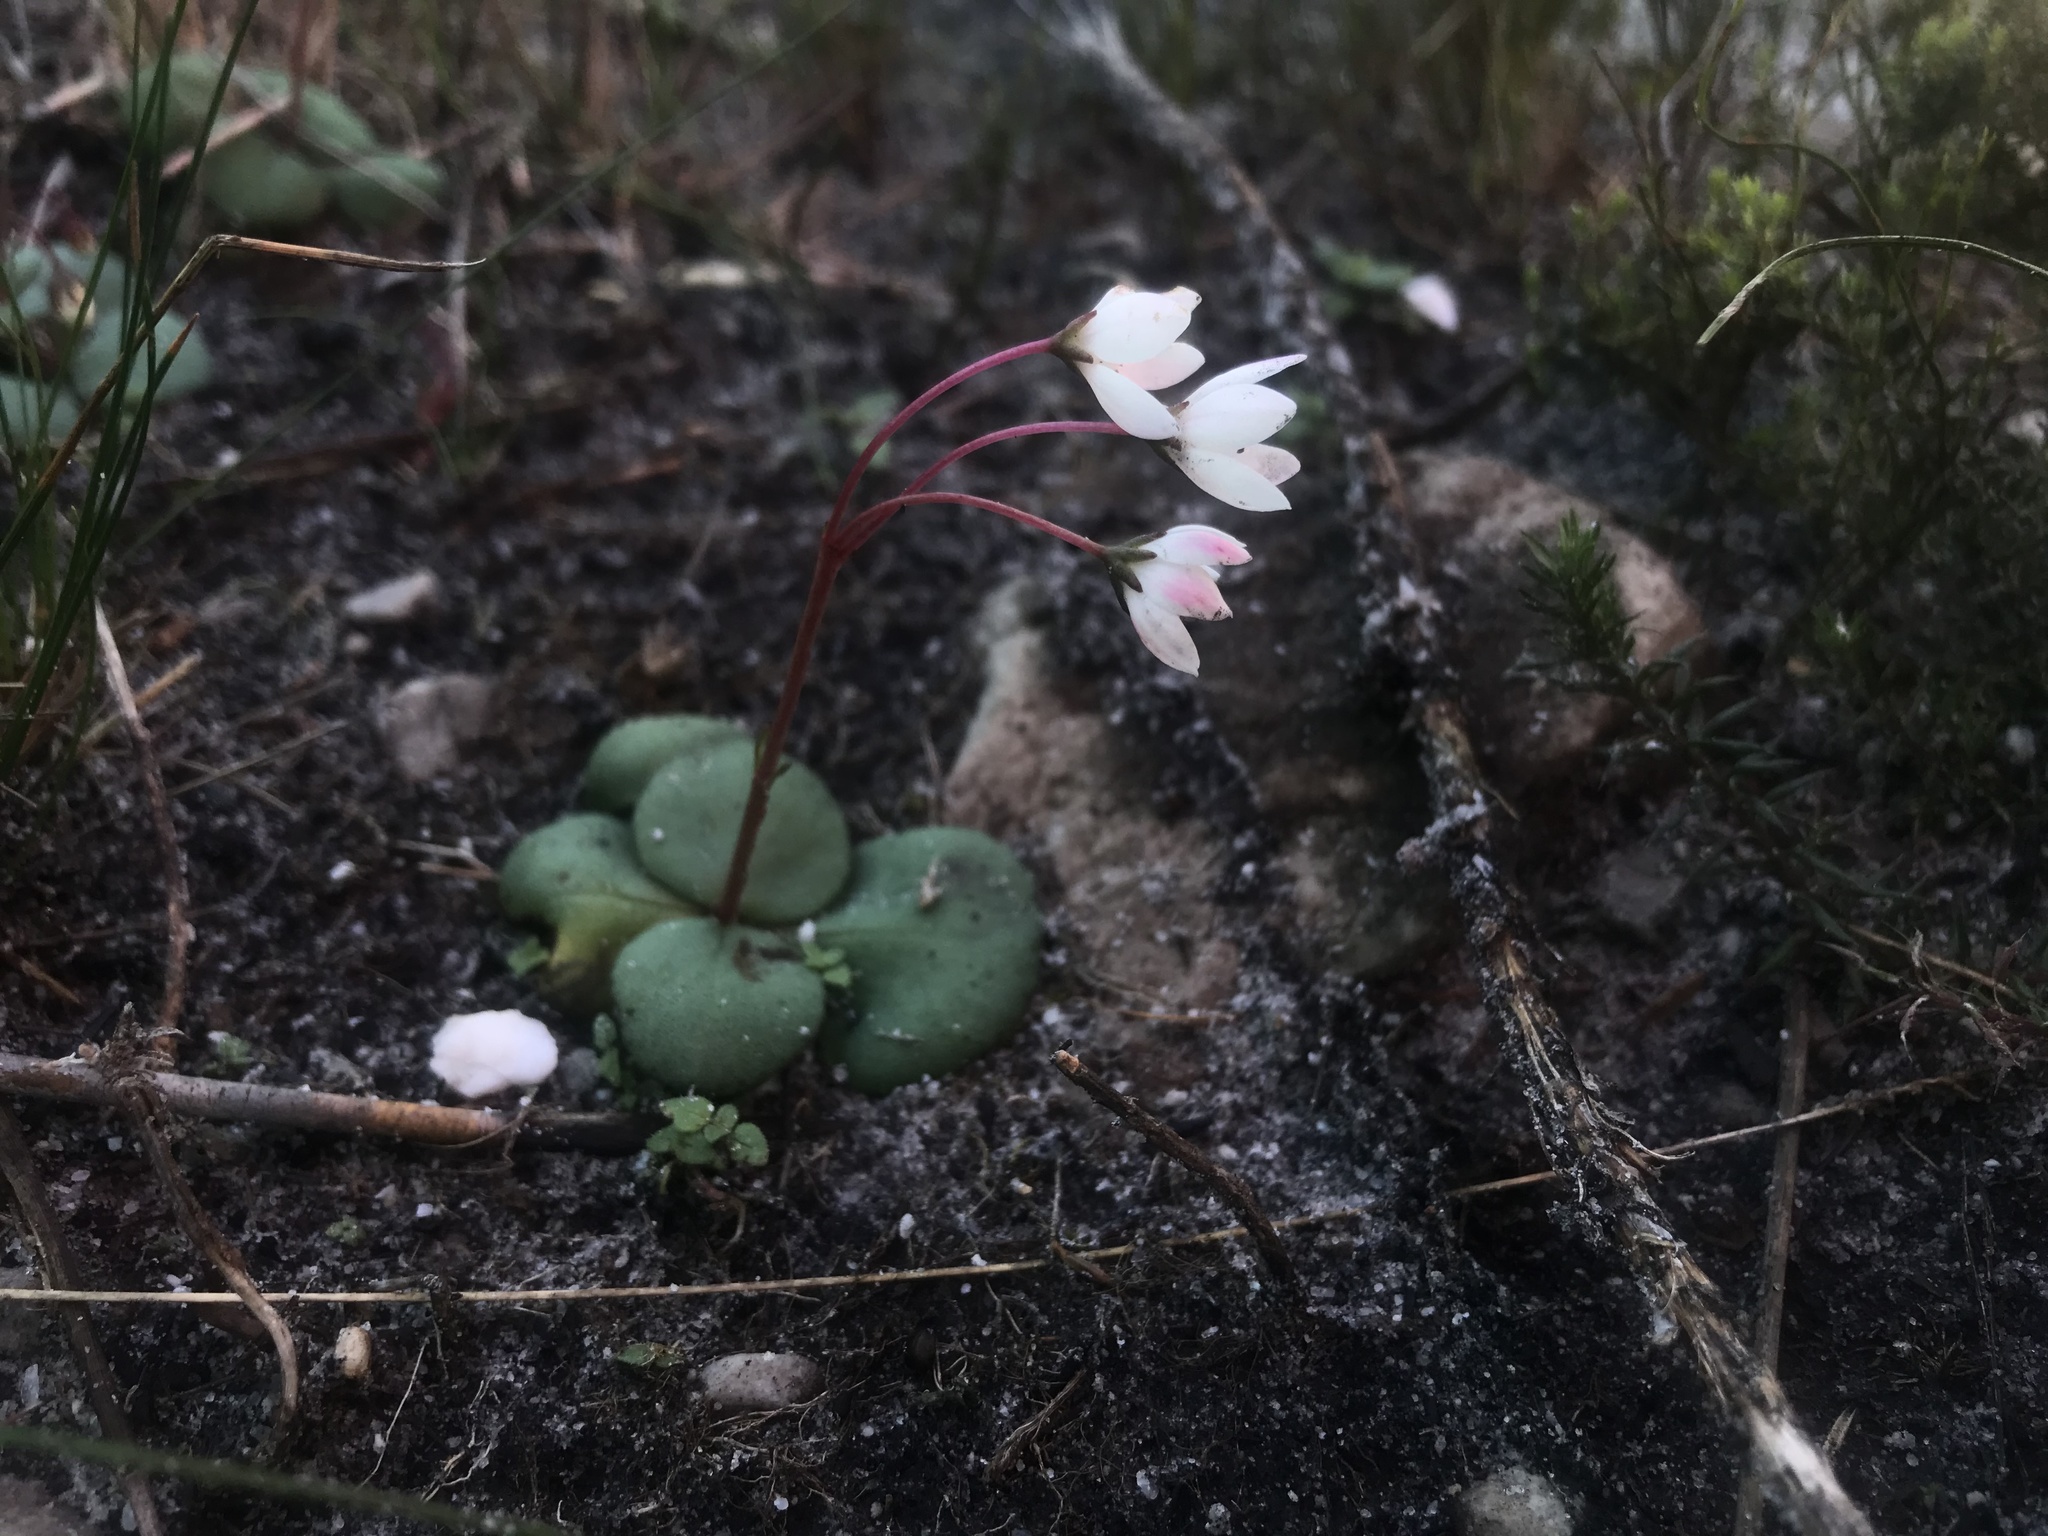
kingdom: Plantae
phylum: Tracheophyta
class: Magnoliopsida
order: Saxifragales
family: Crassulaceae
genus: Crassula
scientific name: Crassula capensis
